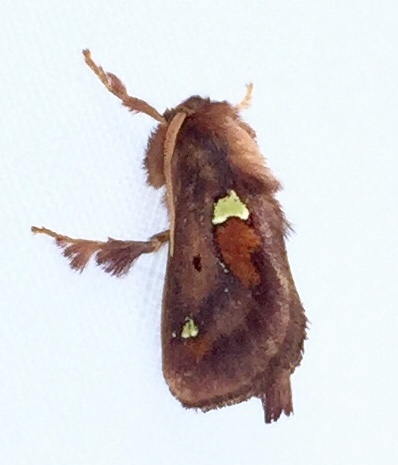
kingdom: Animalia
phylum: Arthropoda
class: Insecta
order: Lepidoptera
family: Limacodidae
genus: Euclea
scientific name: Euclea delphinii
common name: Spiny oak-slug moth
